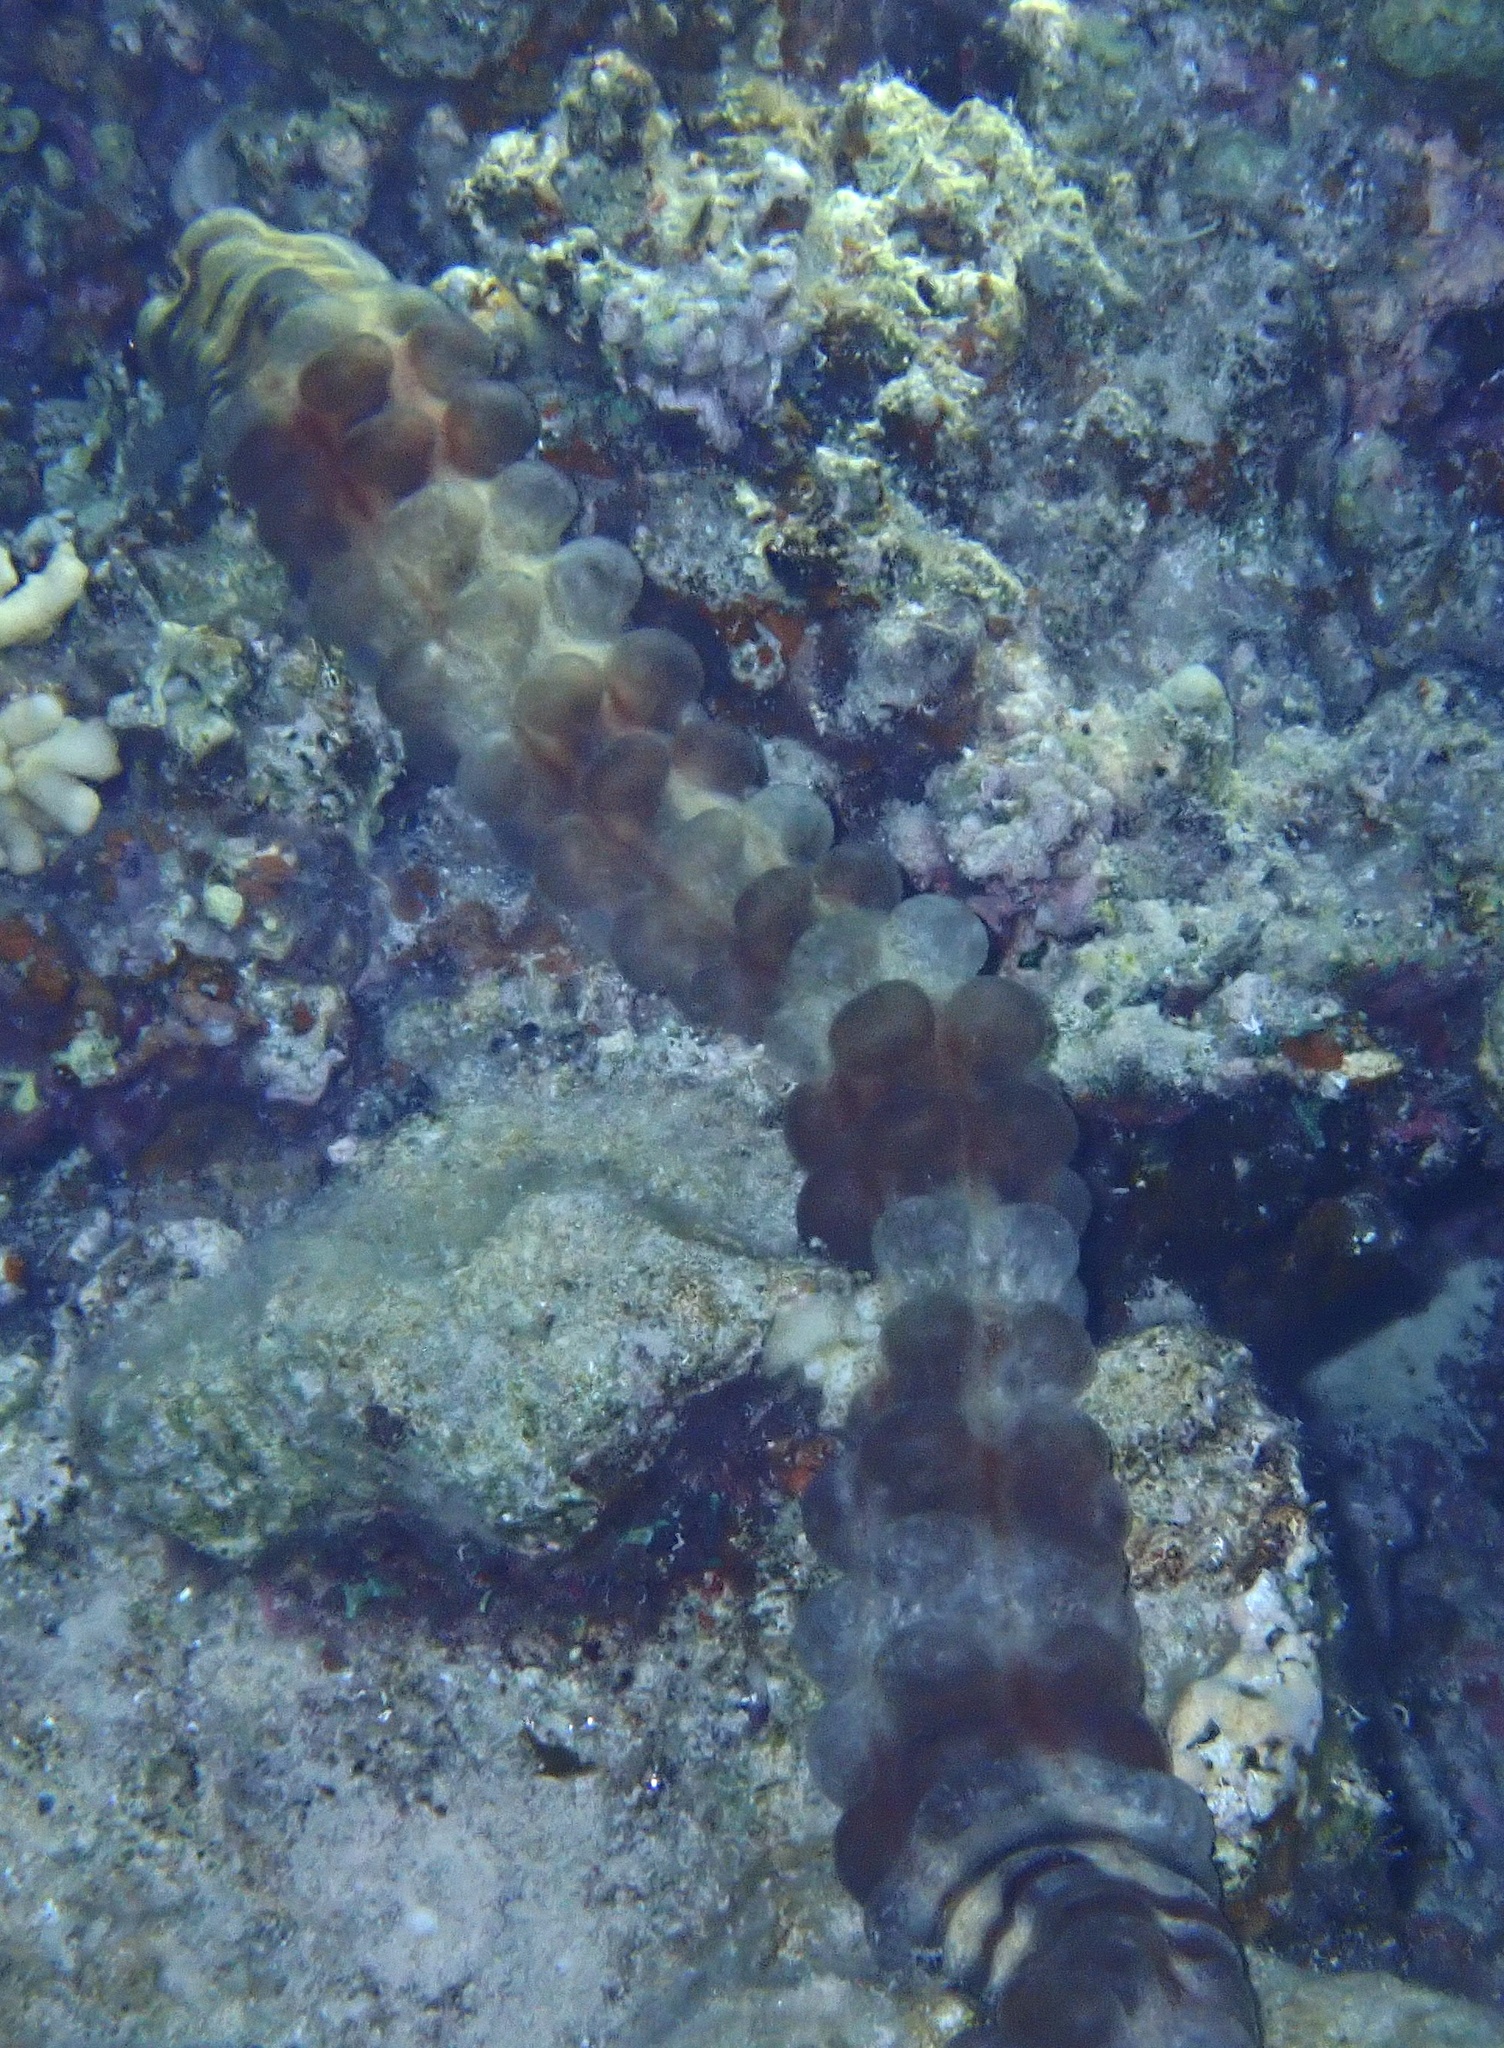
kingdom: Animalia
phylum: Echinodermata
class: Holothuroidea
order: Apodida
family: Synaptidae
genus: Euapta
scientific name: Euapta godeffroyi
